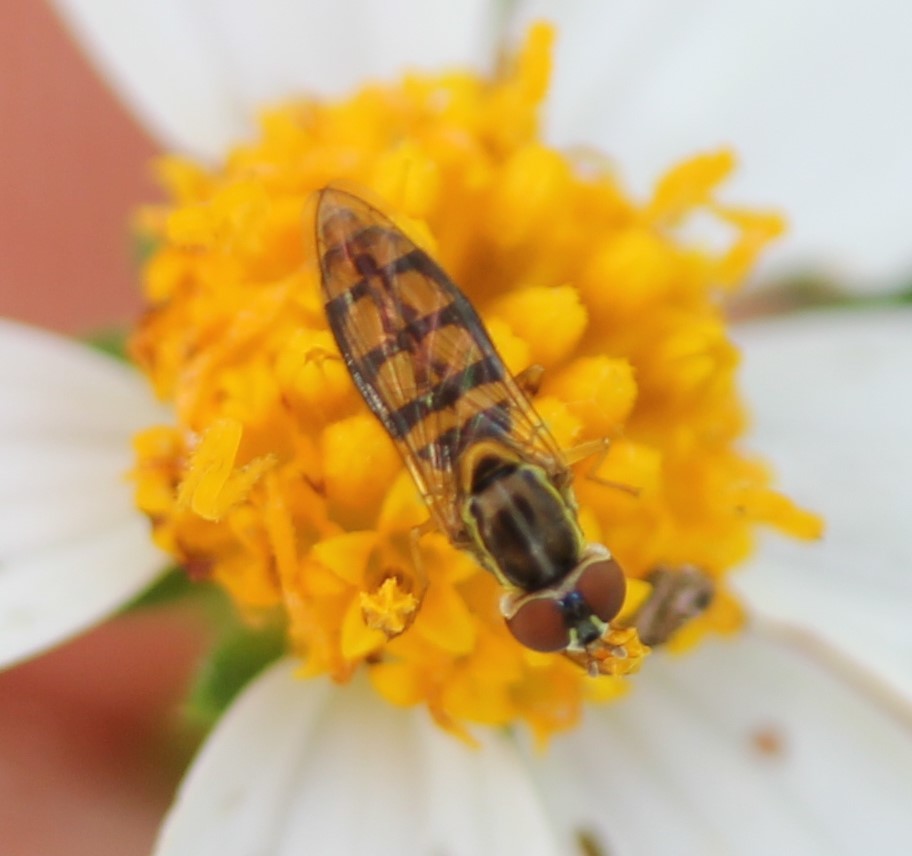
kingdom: Animalia
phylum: Arthropoda
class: Insecta
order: Diptera
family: Syrphidae
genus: Toxomerus
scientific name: Toxomerus floralis
